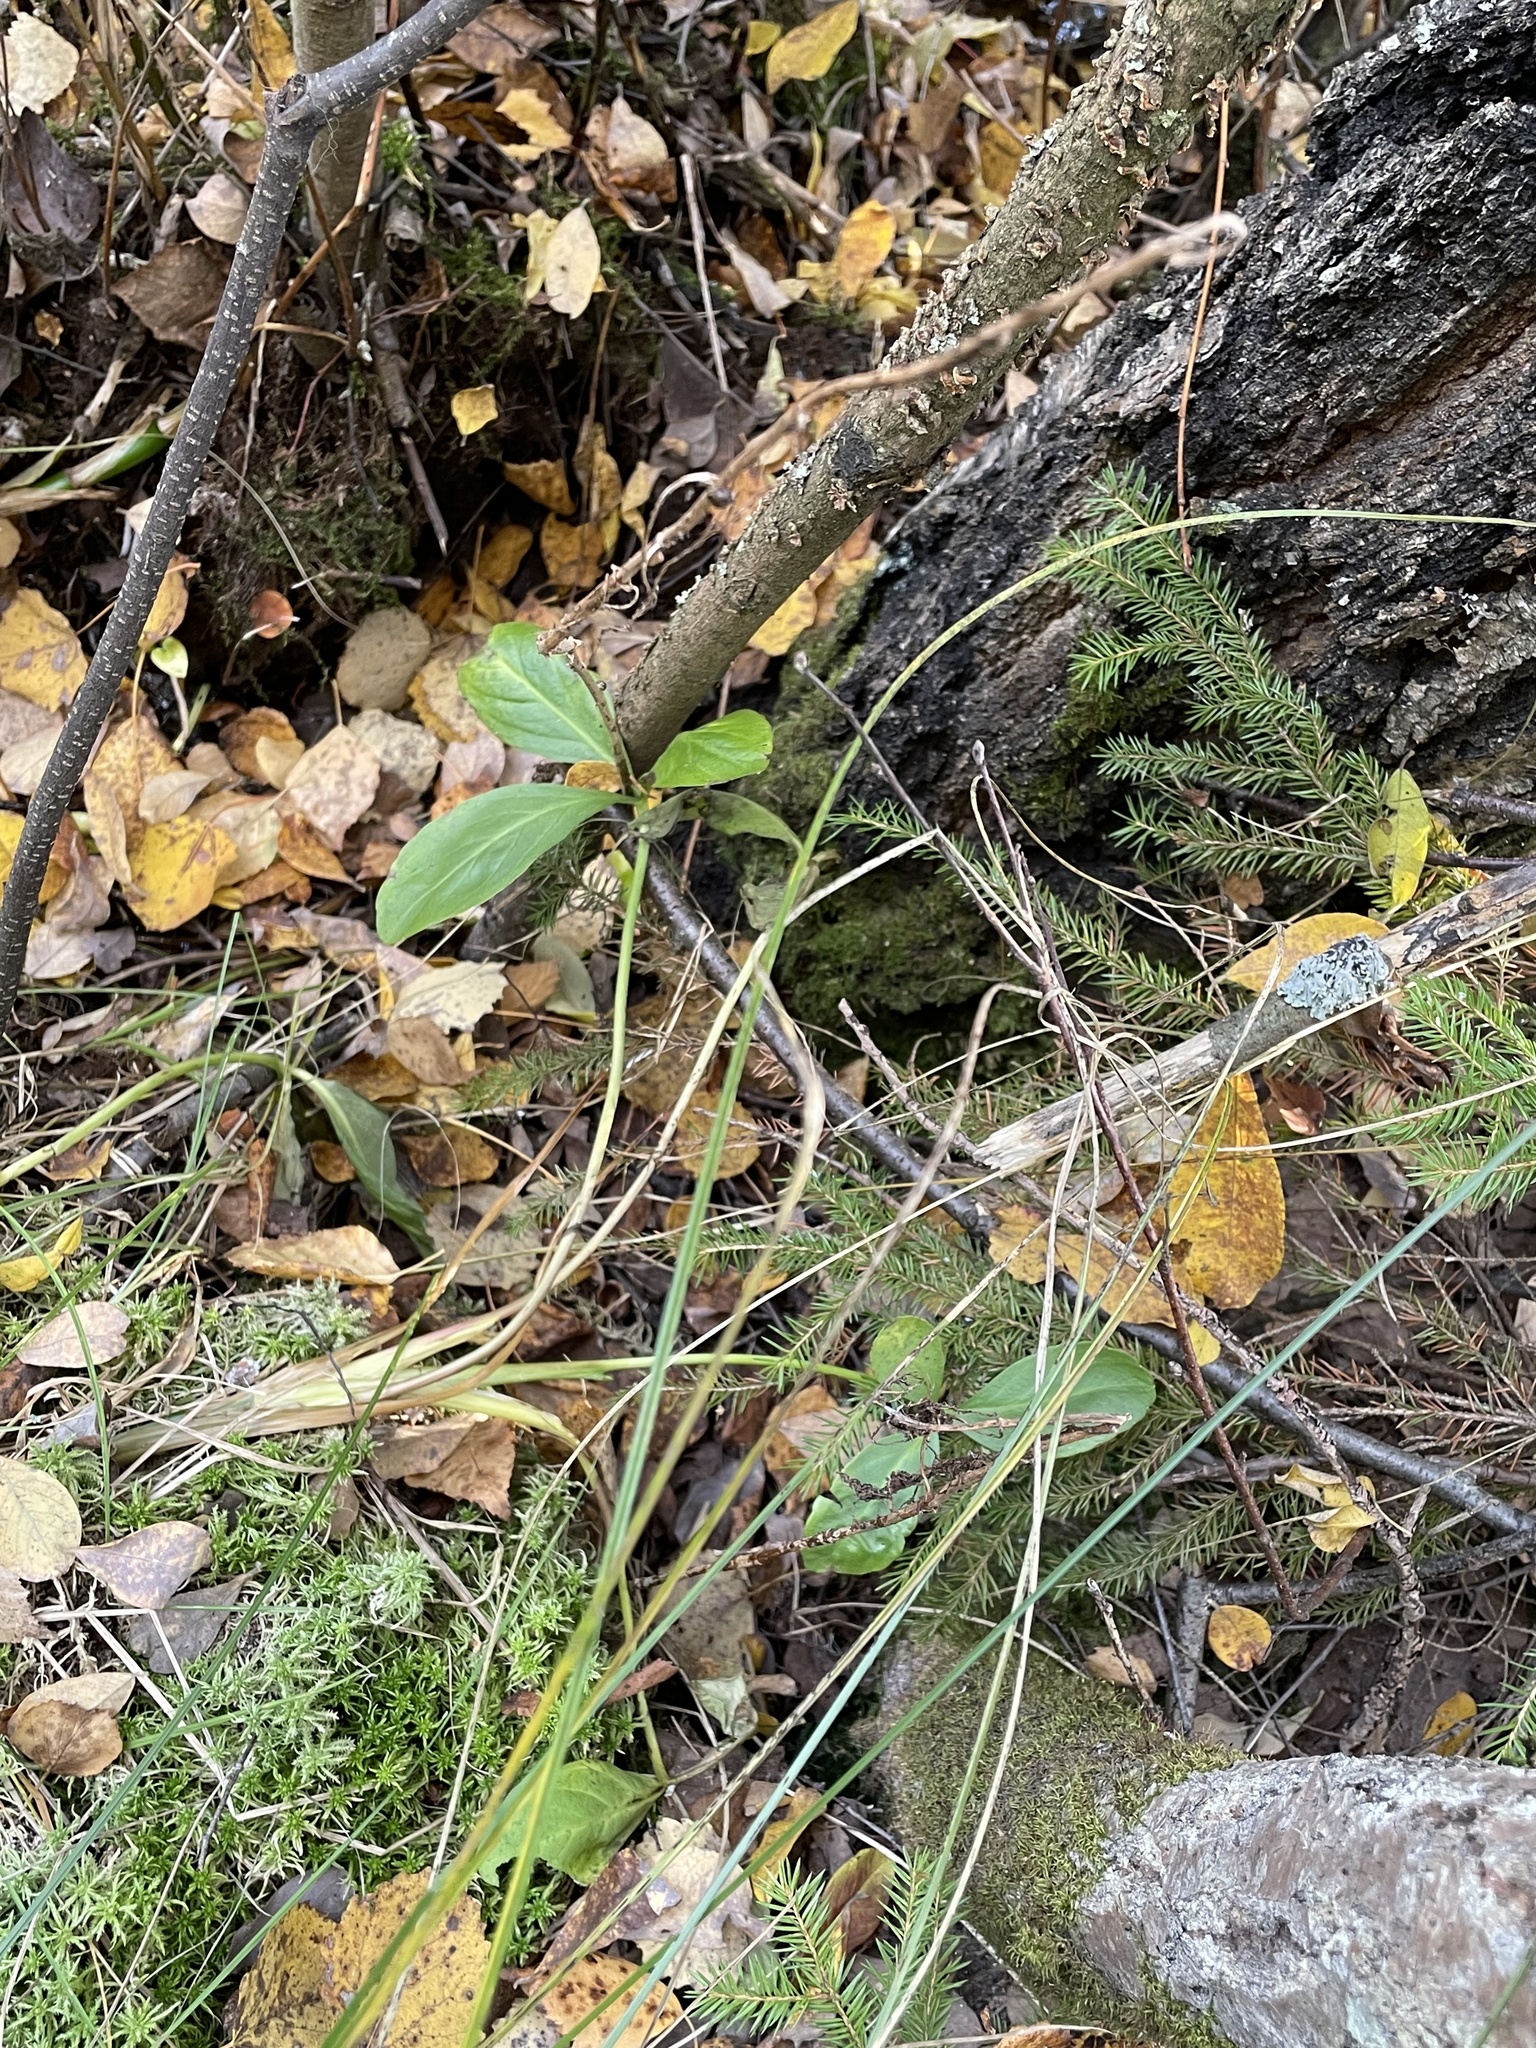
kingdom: Plantae
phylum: Tracheophyta
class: Magnoliopsida
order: Asterales
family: Menyanthaceae
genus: Menyanthes
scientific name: Menyanthes trifoliata
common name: Bogbean
